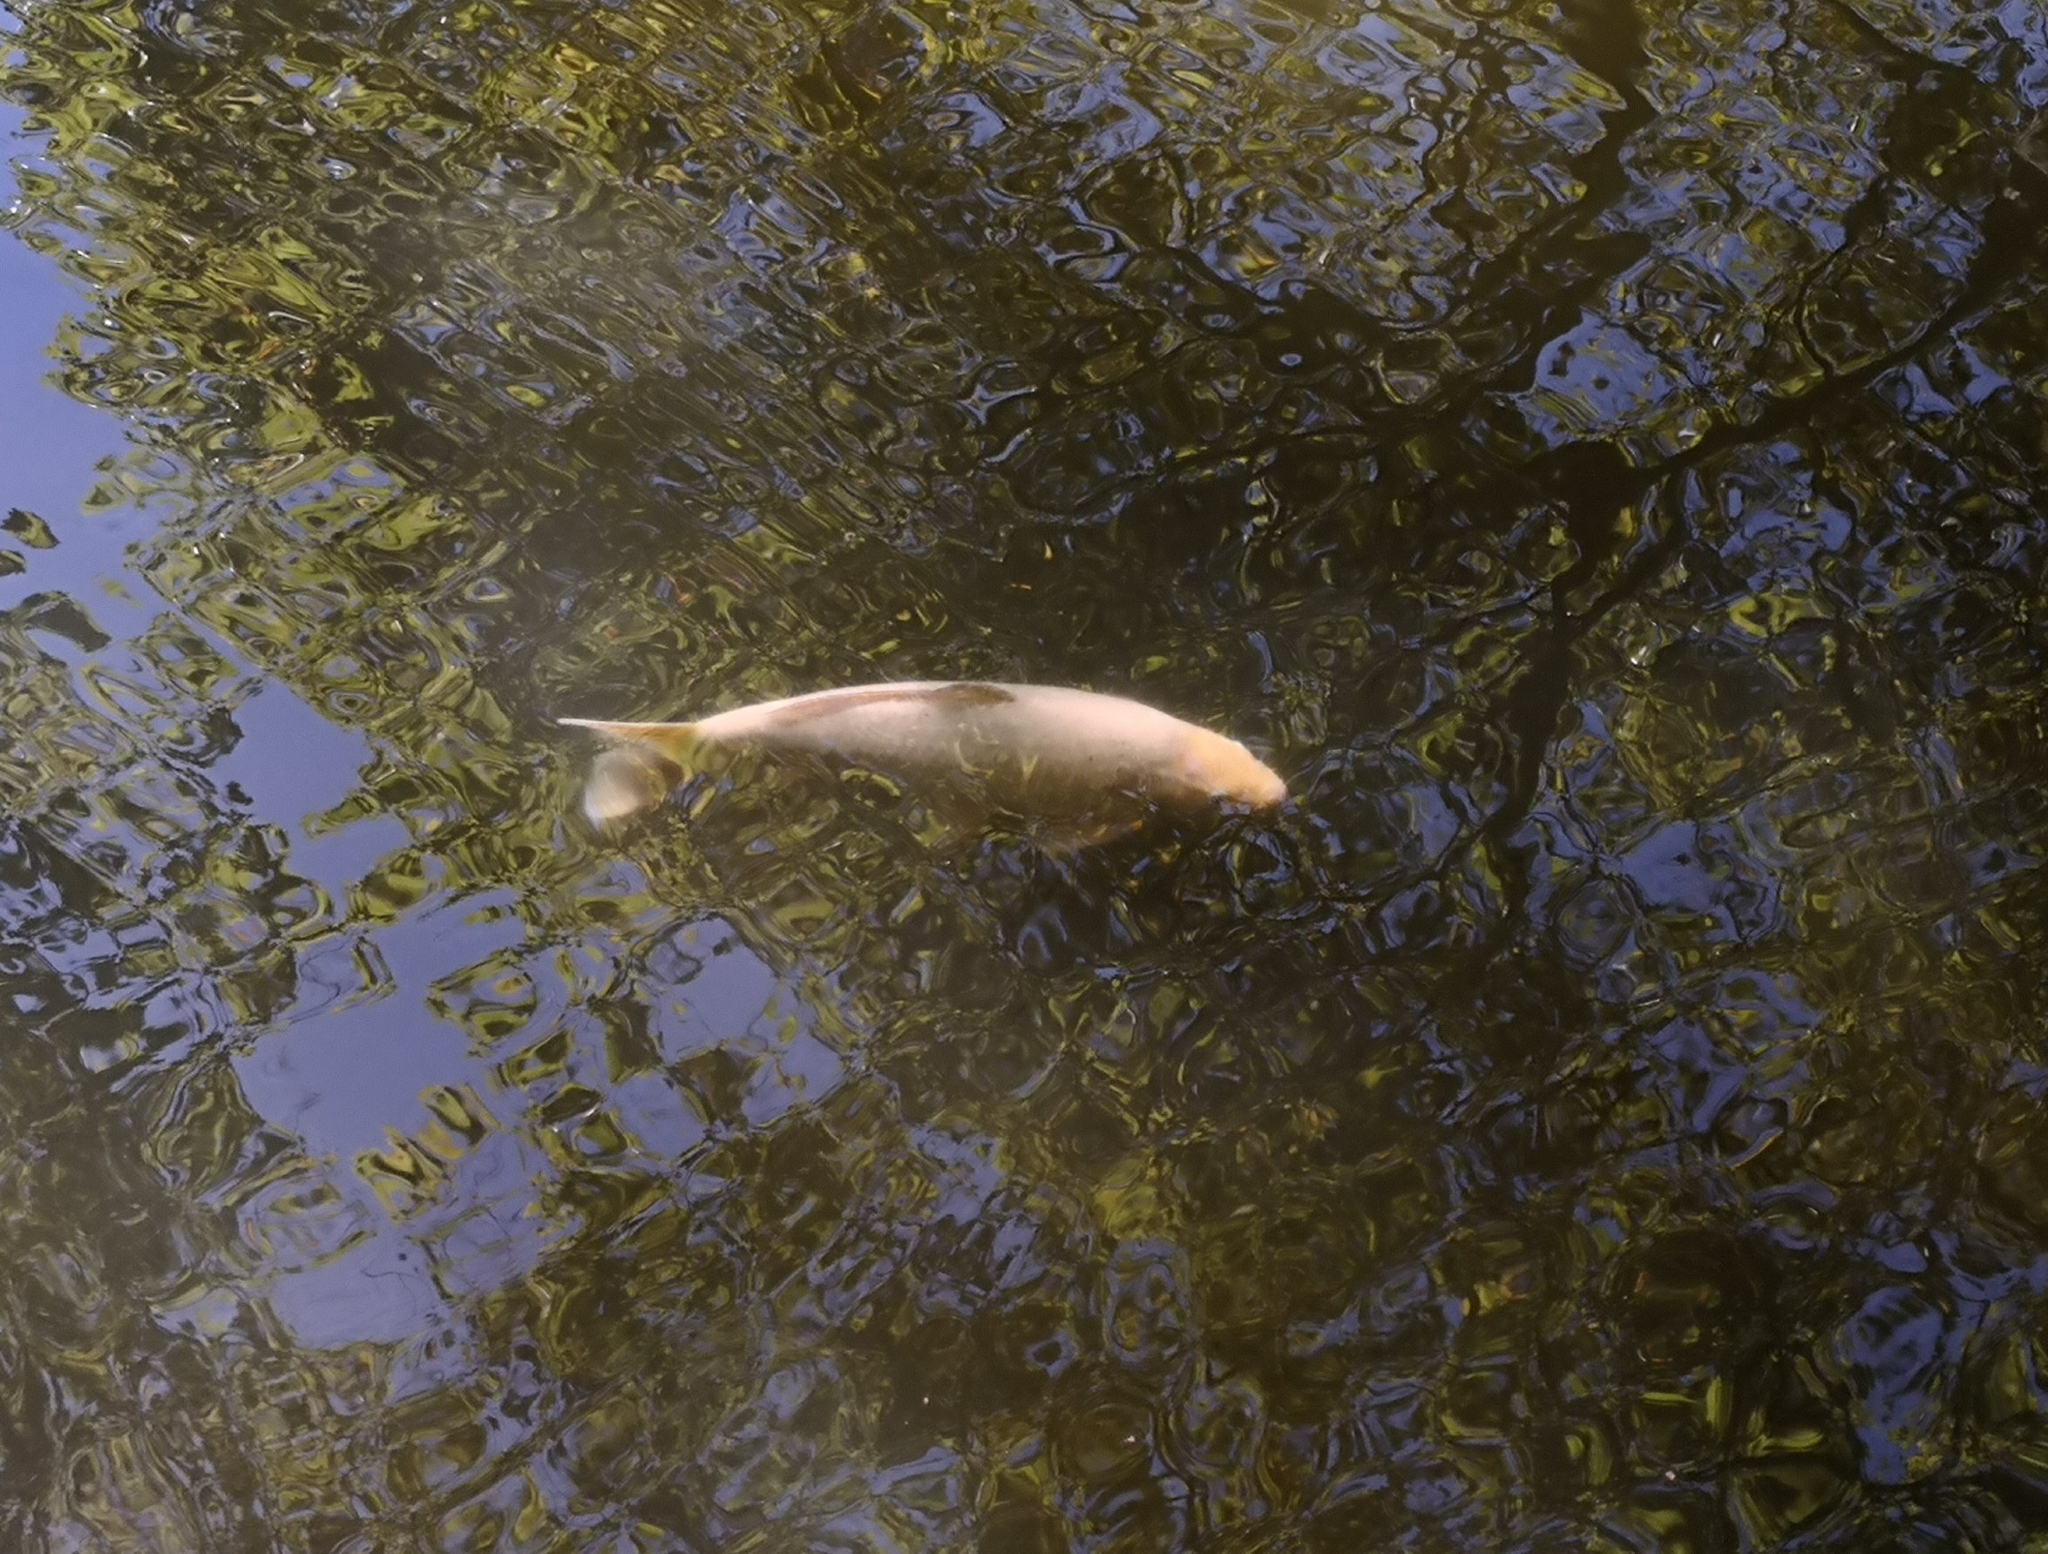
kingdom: Animalia
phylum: Chordata
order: Cypriniformes
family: Cyprinidae
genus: Cyprinus
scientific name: Cyprinus rubrofuscus
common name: Koi
